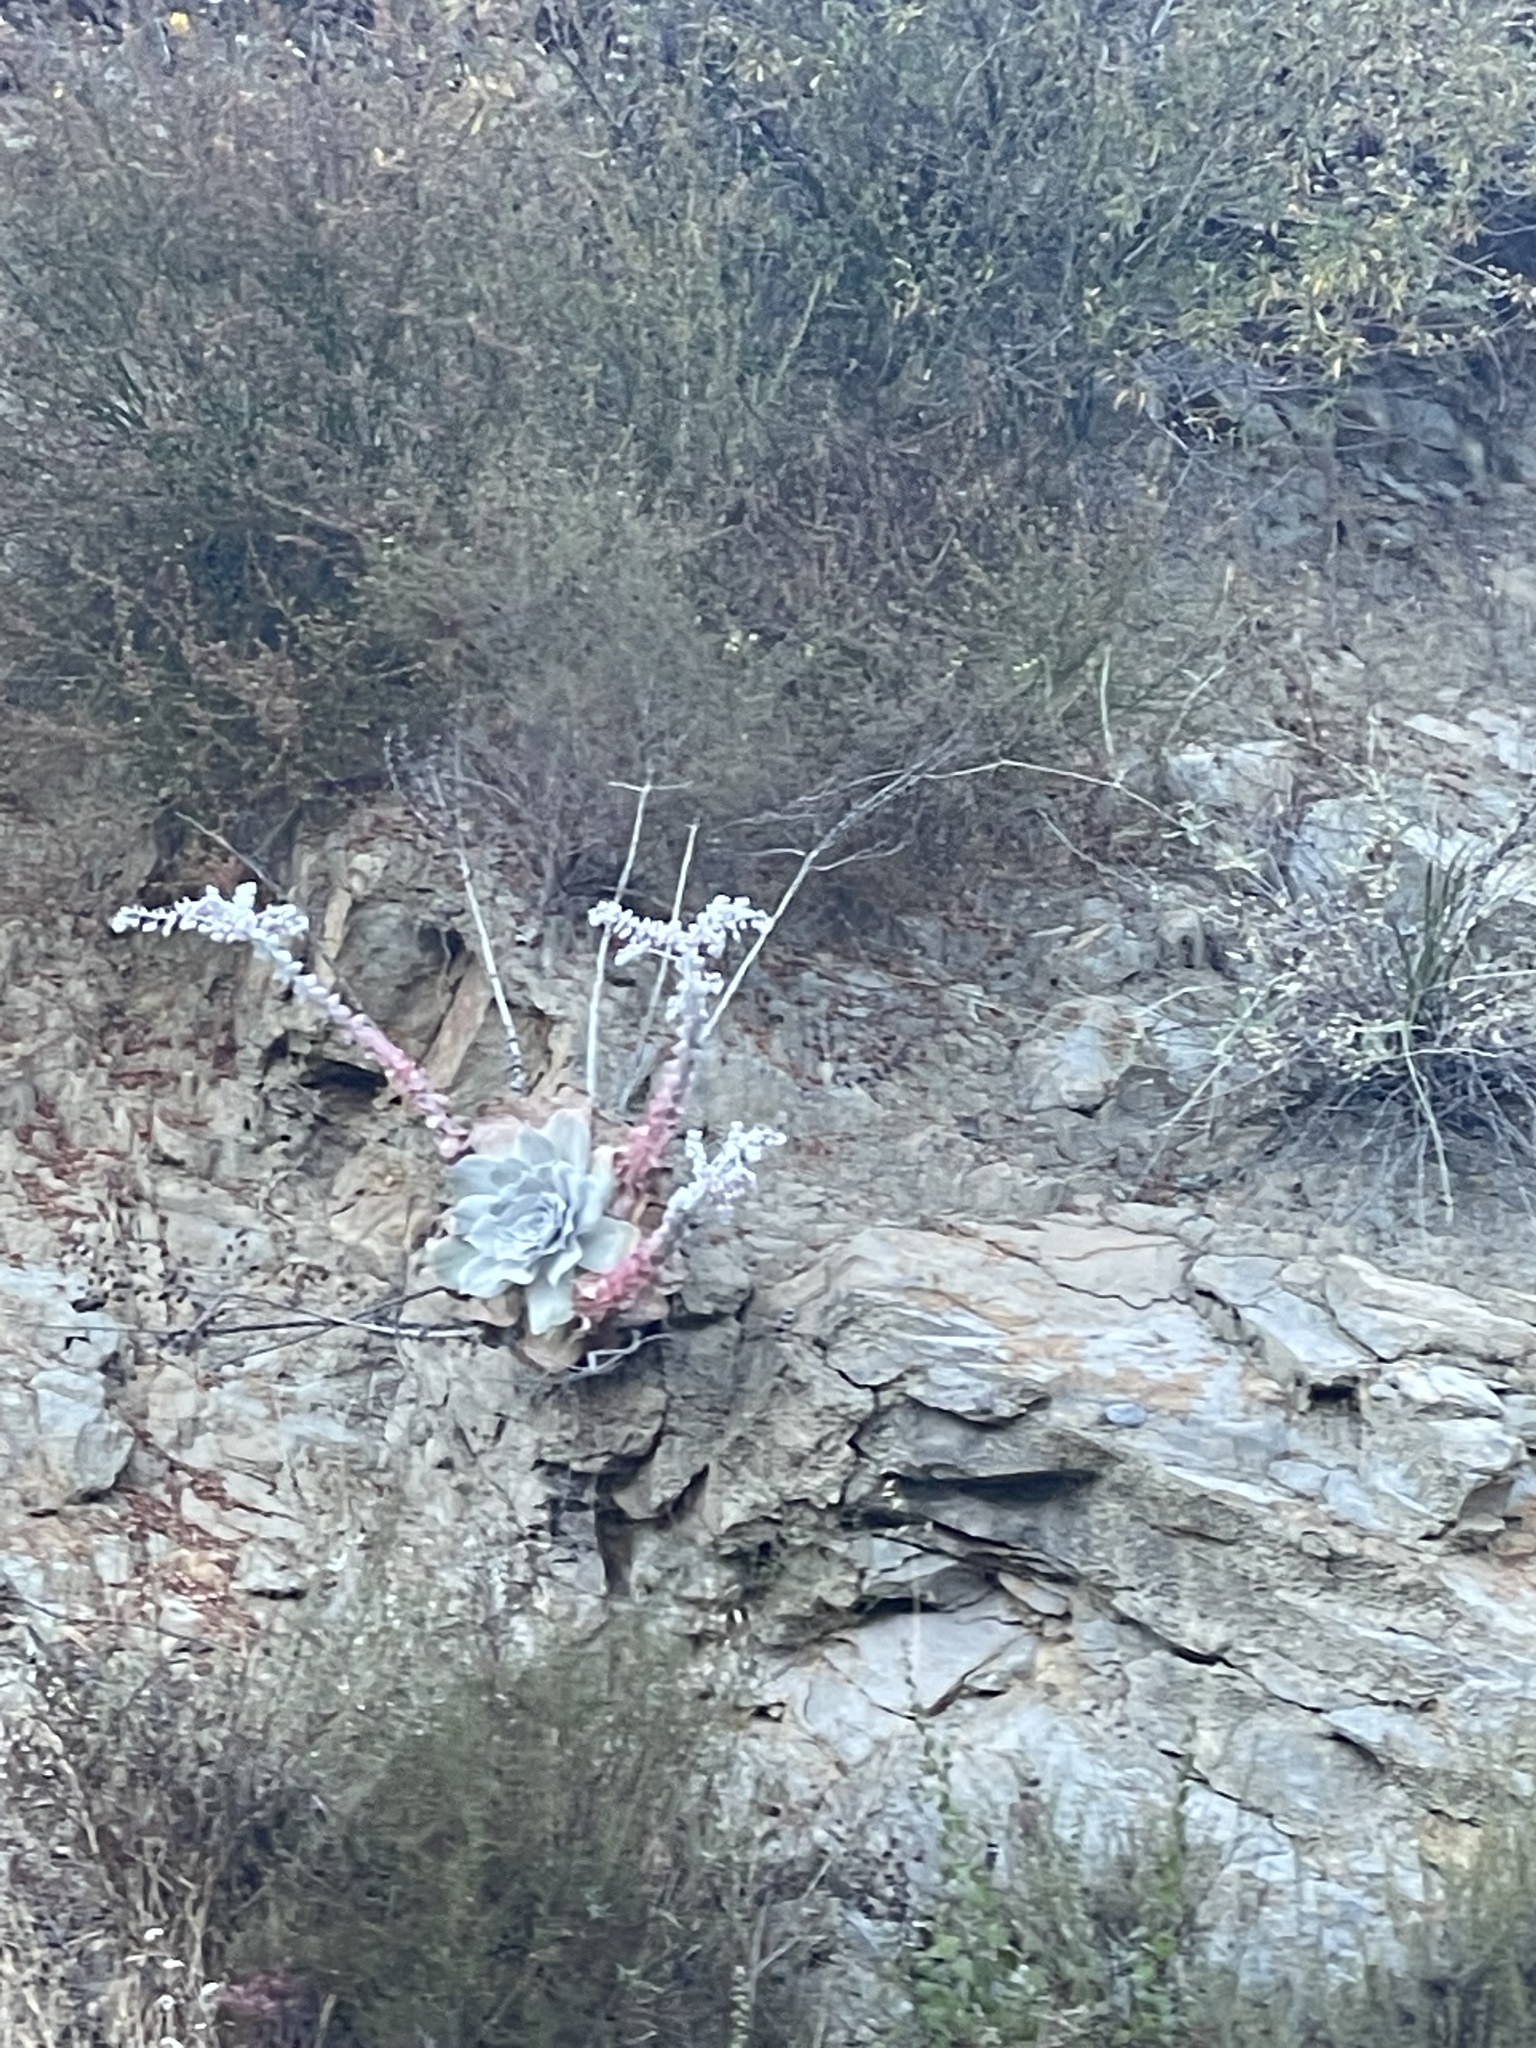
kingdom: Plantae
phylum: Tracheophyta
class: Magnoliopsida
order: Saxifragales
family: Crassulaceae
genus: Dudleya
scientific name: Dudleya pulverulenta
